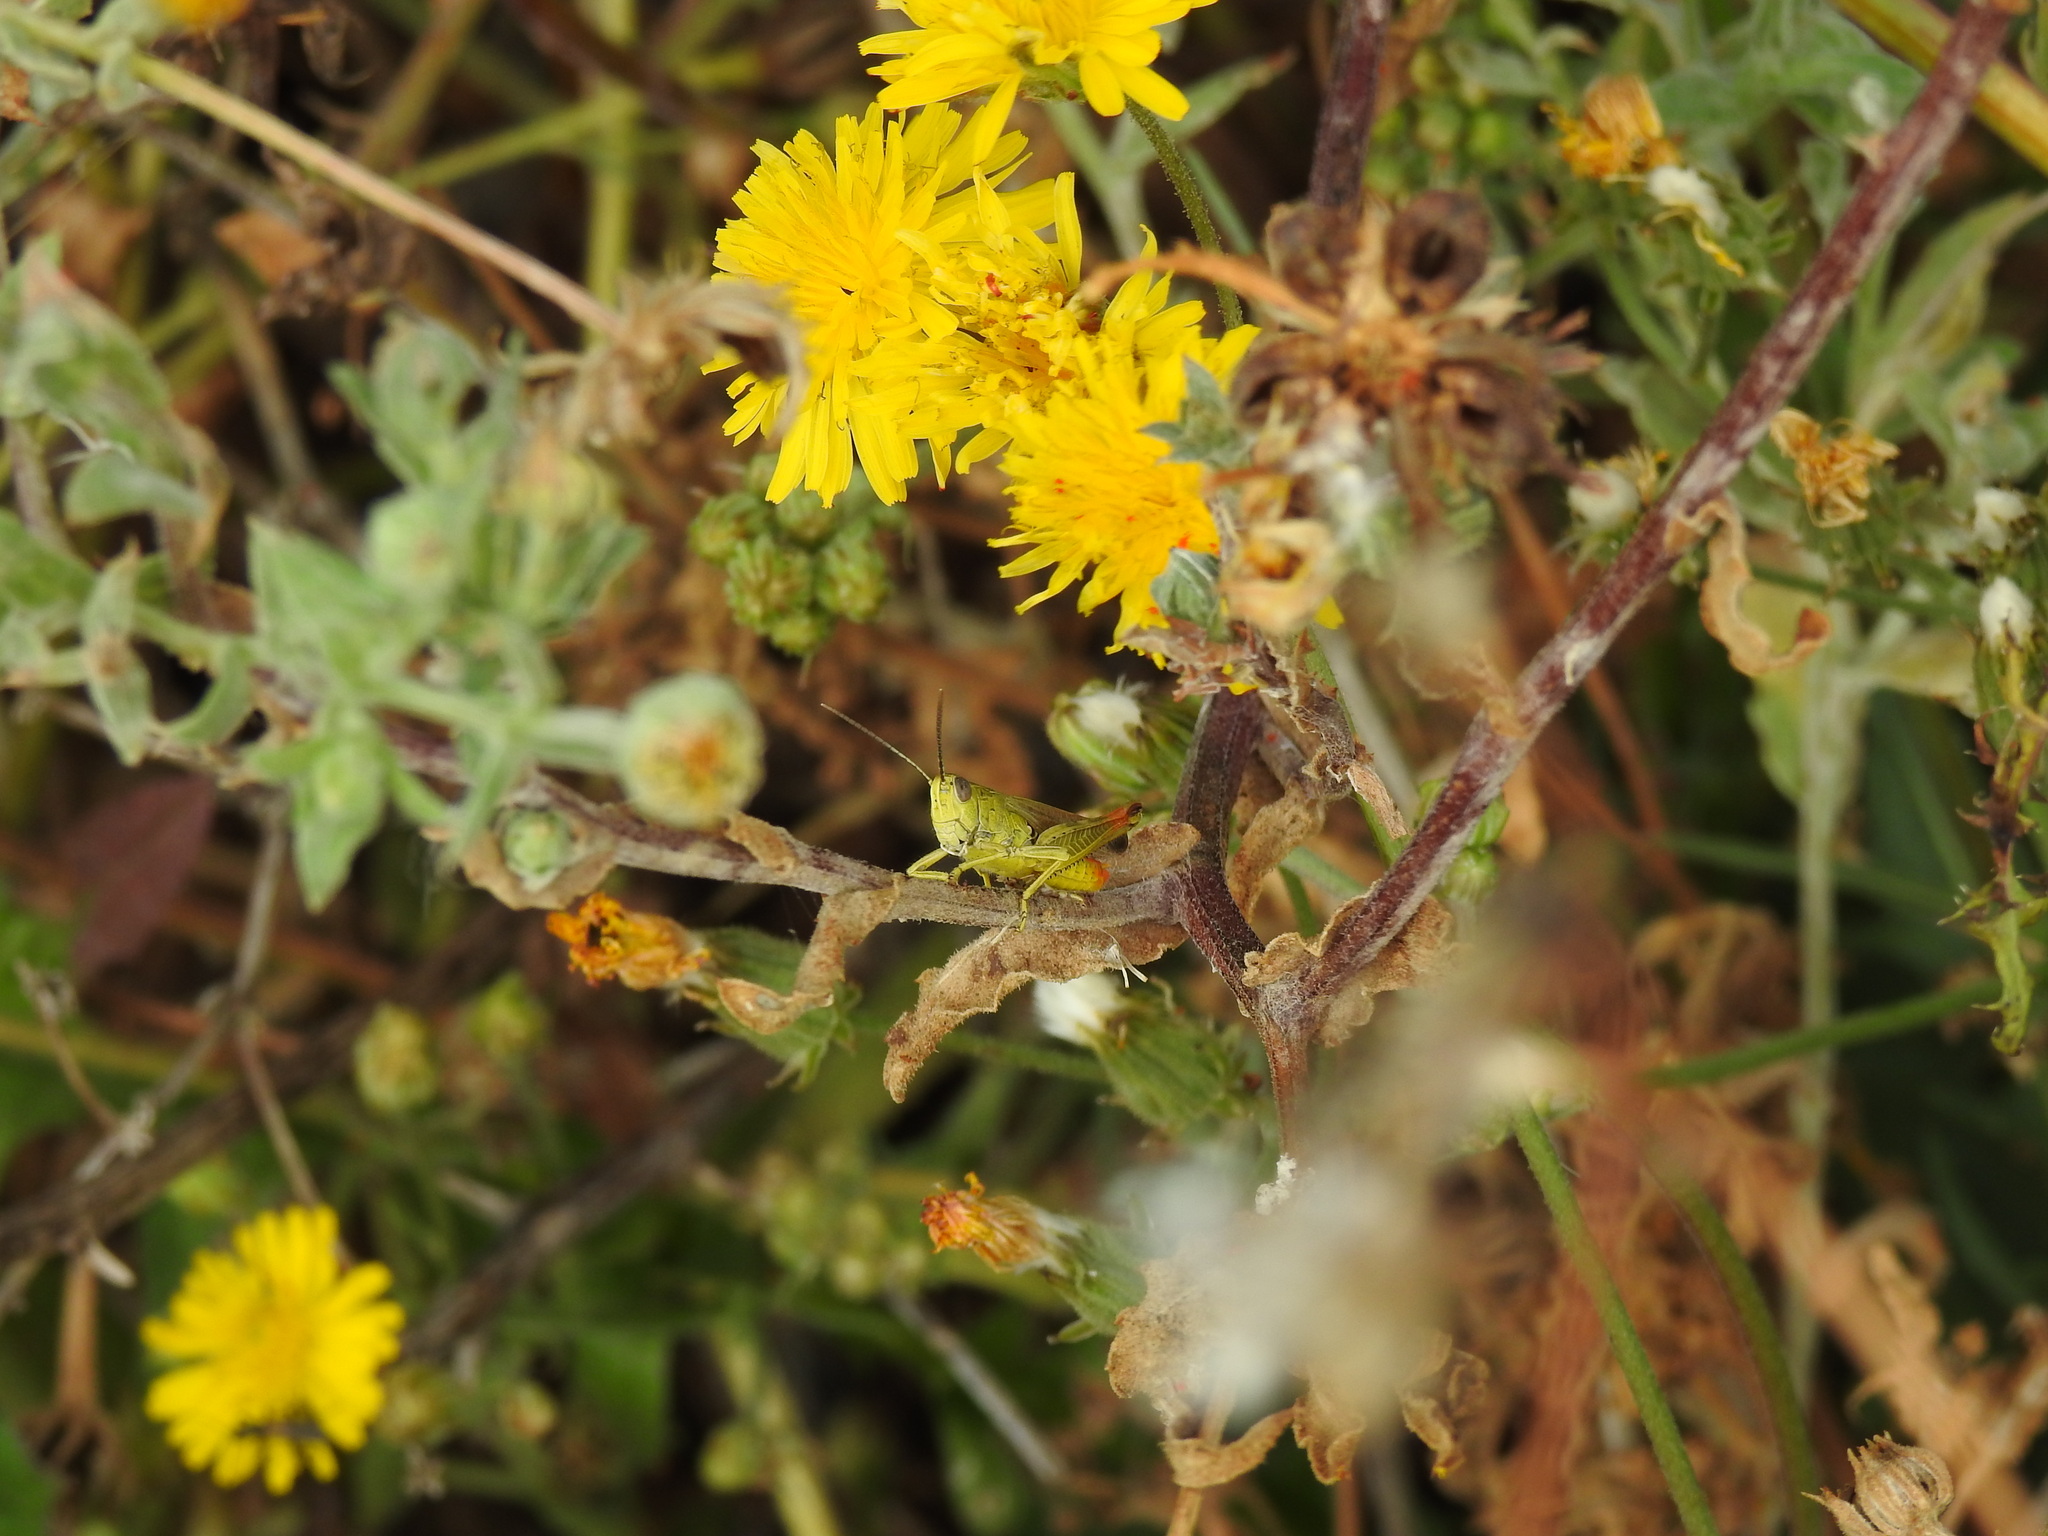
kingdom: Animalia
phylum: Arthropoda
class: Insecta
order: Orthoptera
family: Acrididae
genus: Chorthippus
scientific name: Chorthippus apicalis
